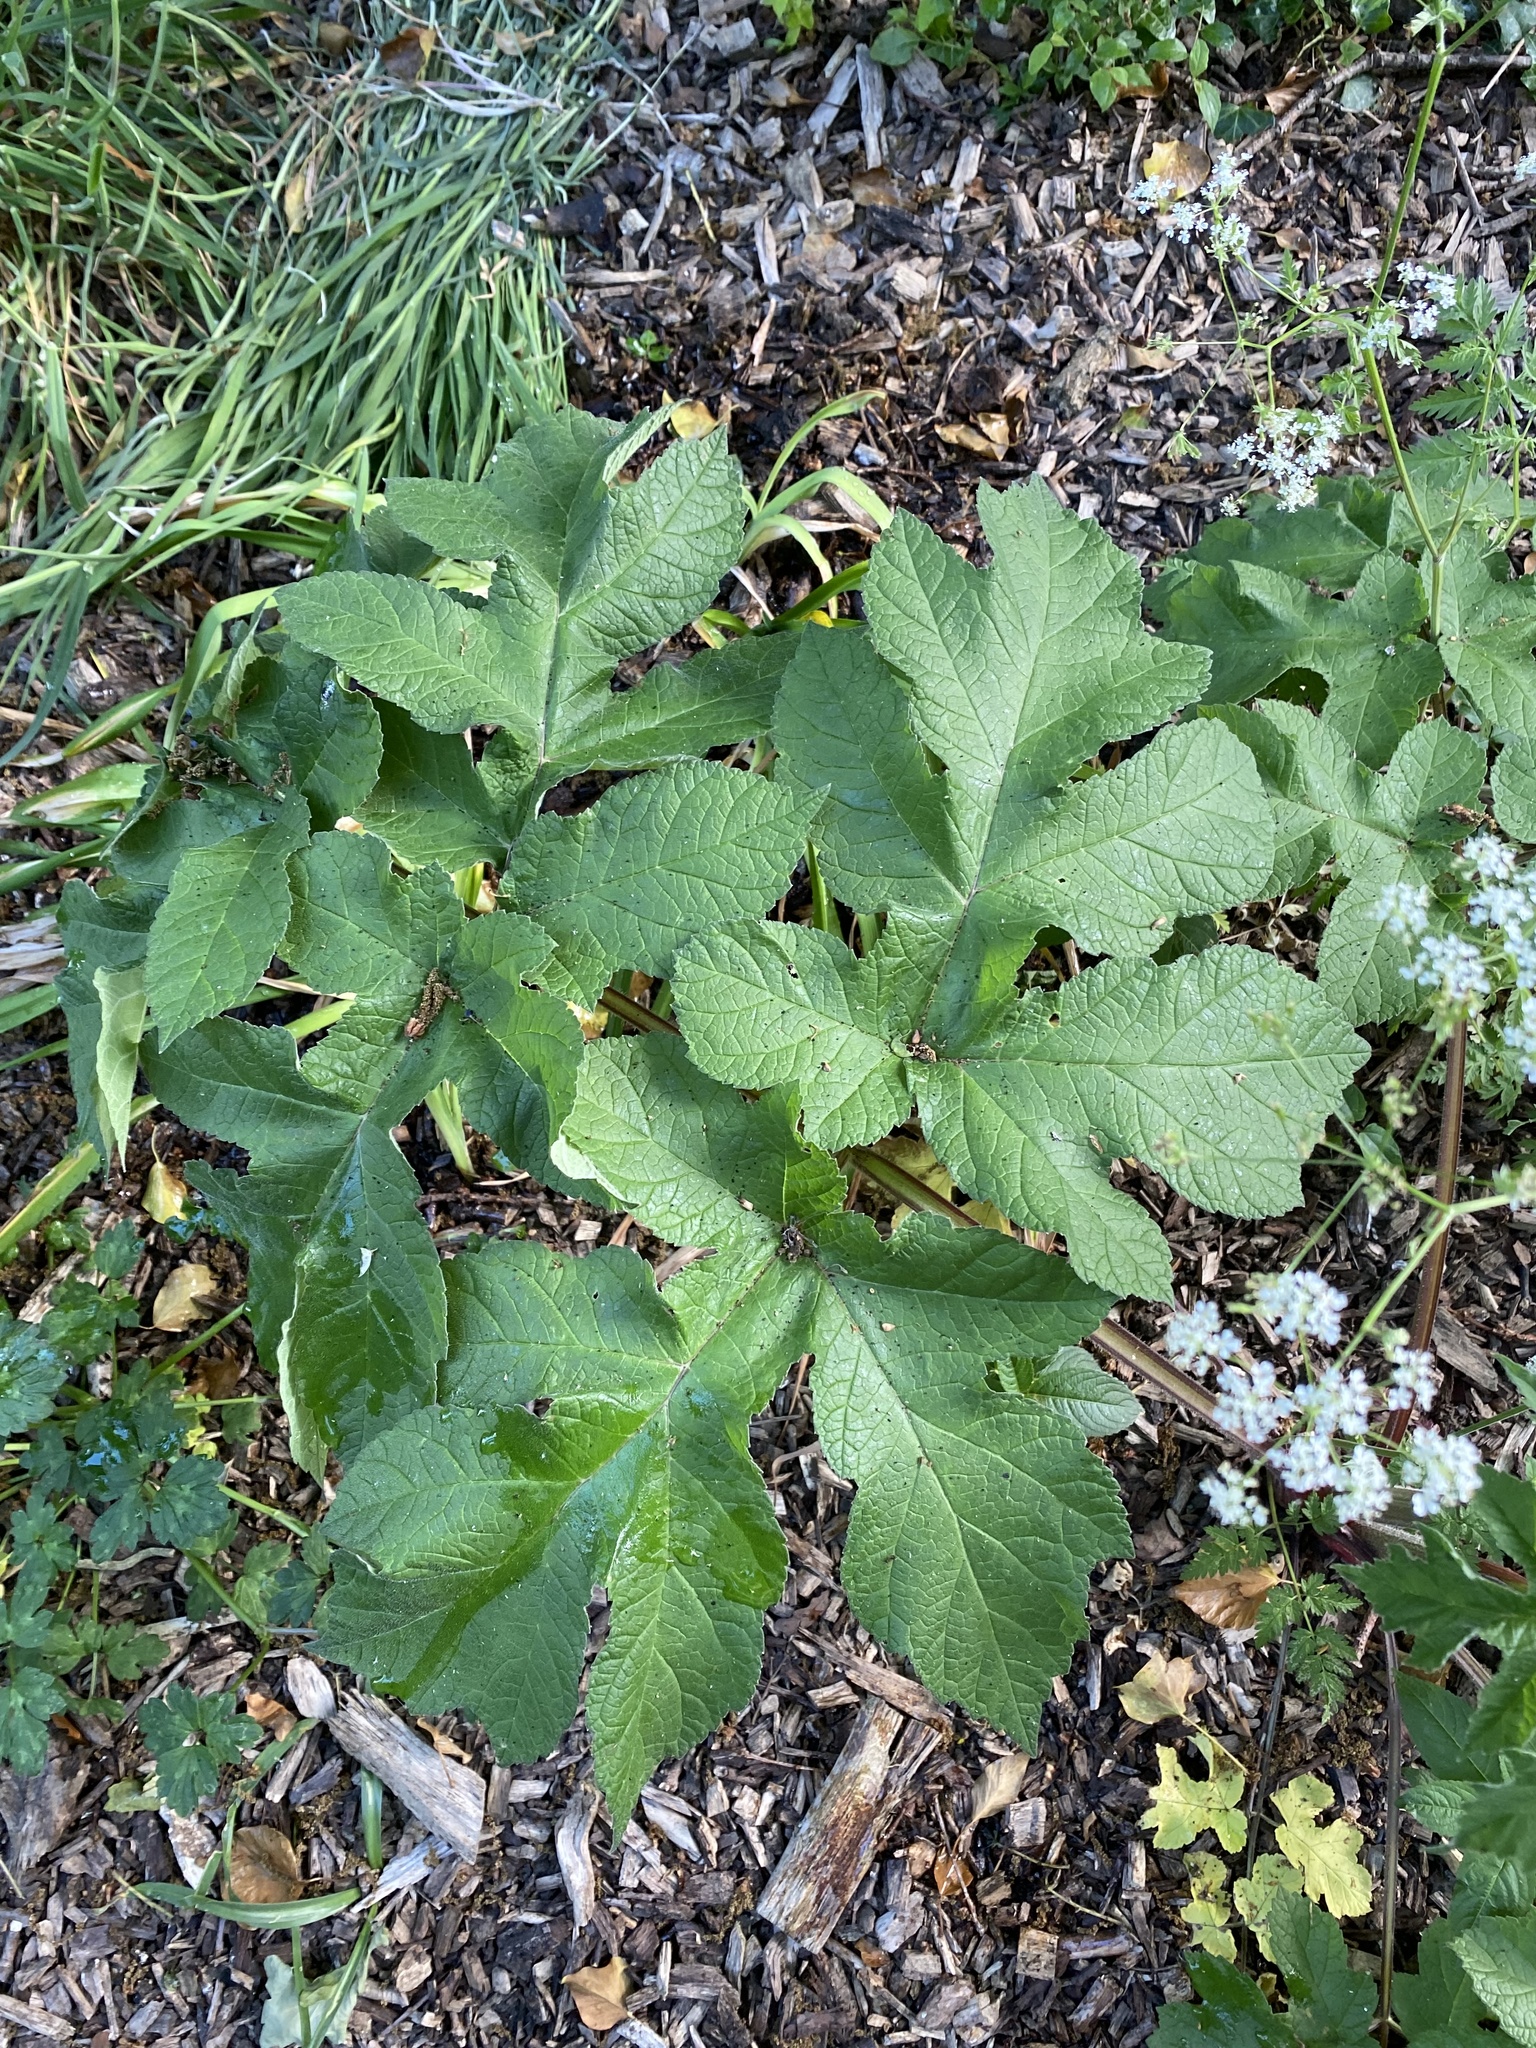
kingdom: Plantae
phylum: Tracheophyta
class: Magnoliopsida
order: Apiales
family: Apiaceae
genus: Heracleum
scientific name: Heracleum sphondylium
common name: Hogweed
